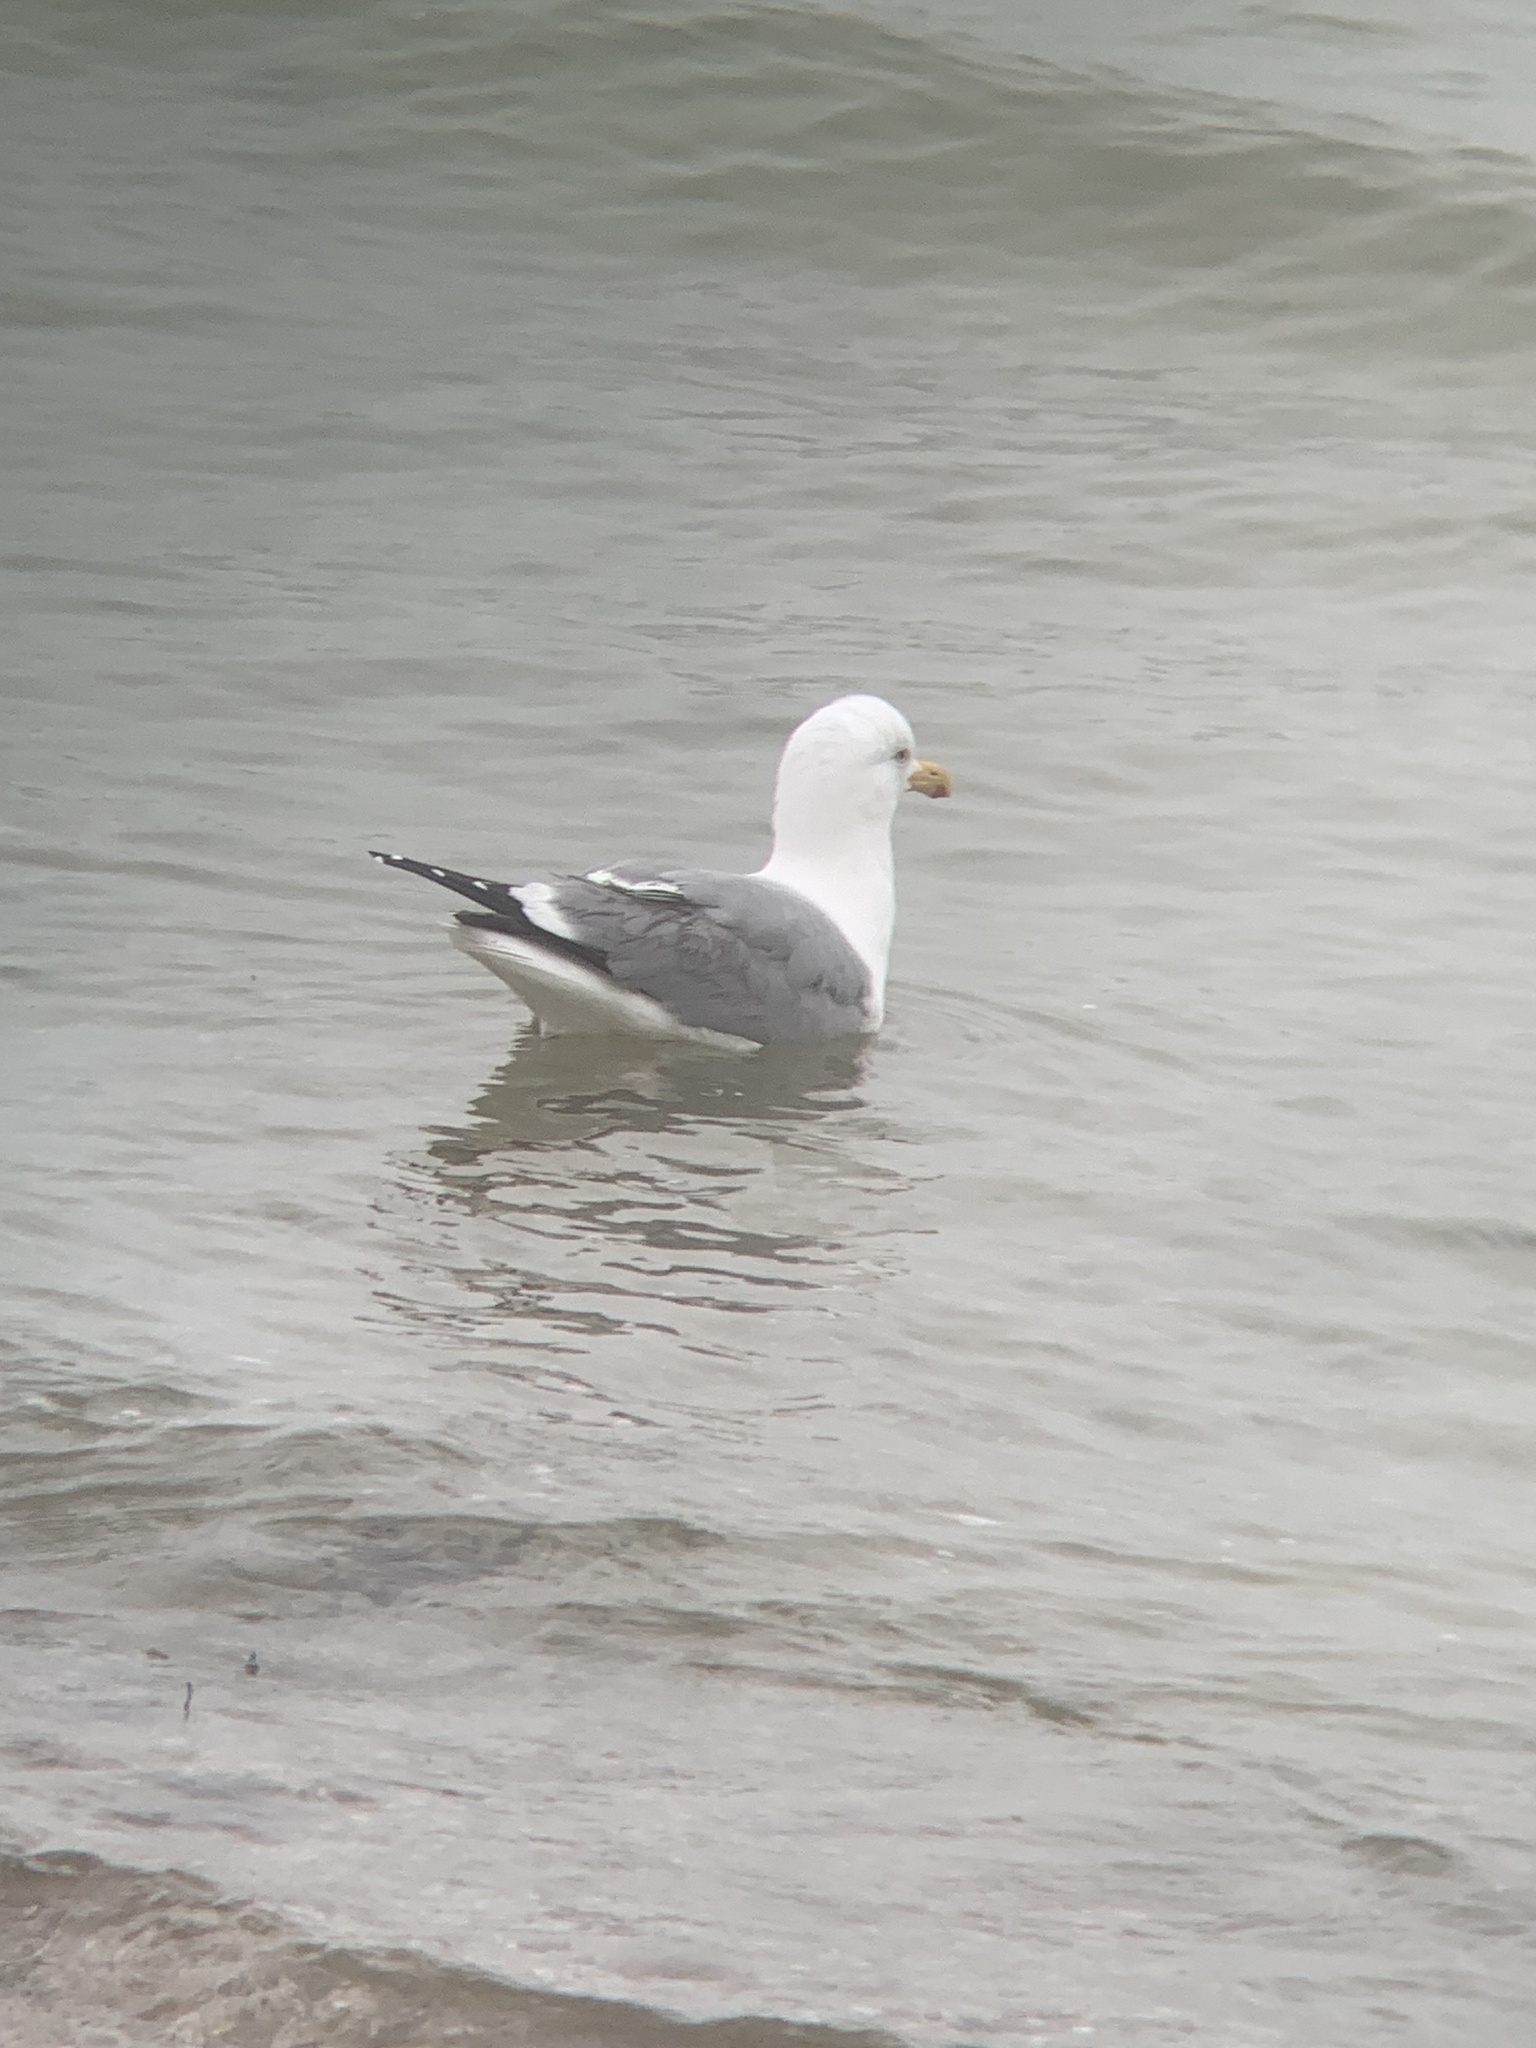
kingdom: Animalia
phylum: Chordata
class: Aves
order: Charadriiformes
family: Laridae
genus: Larus
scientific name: Larus argentatus
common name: Herring gull
